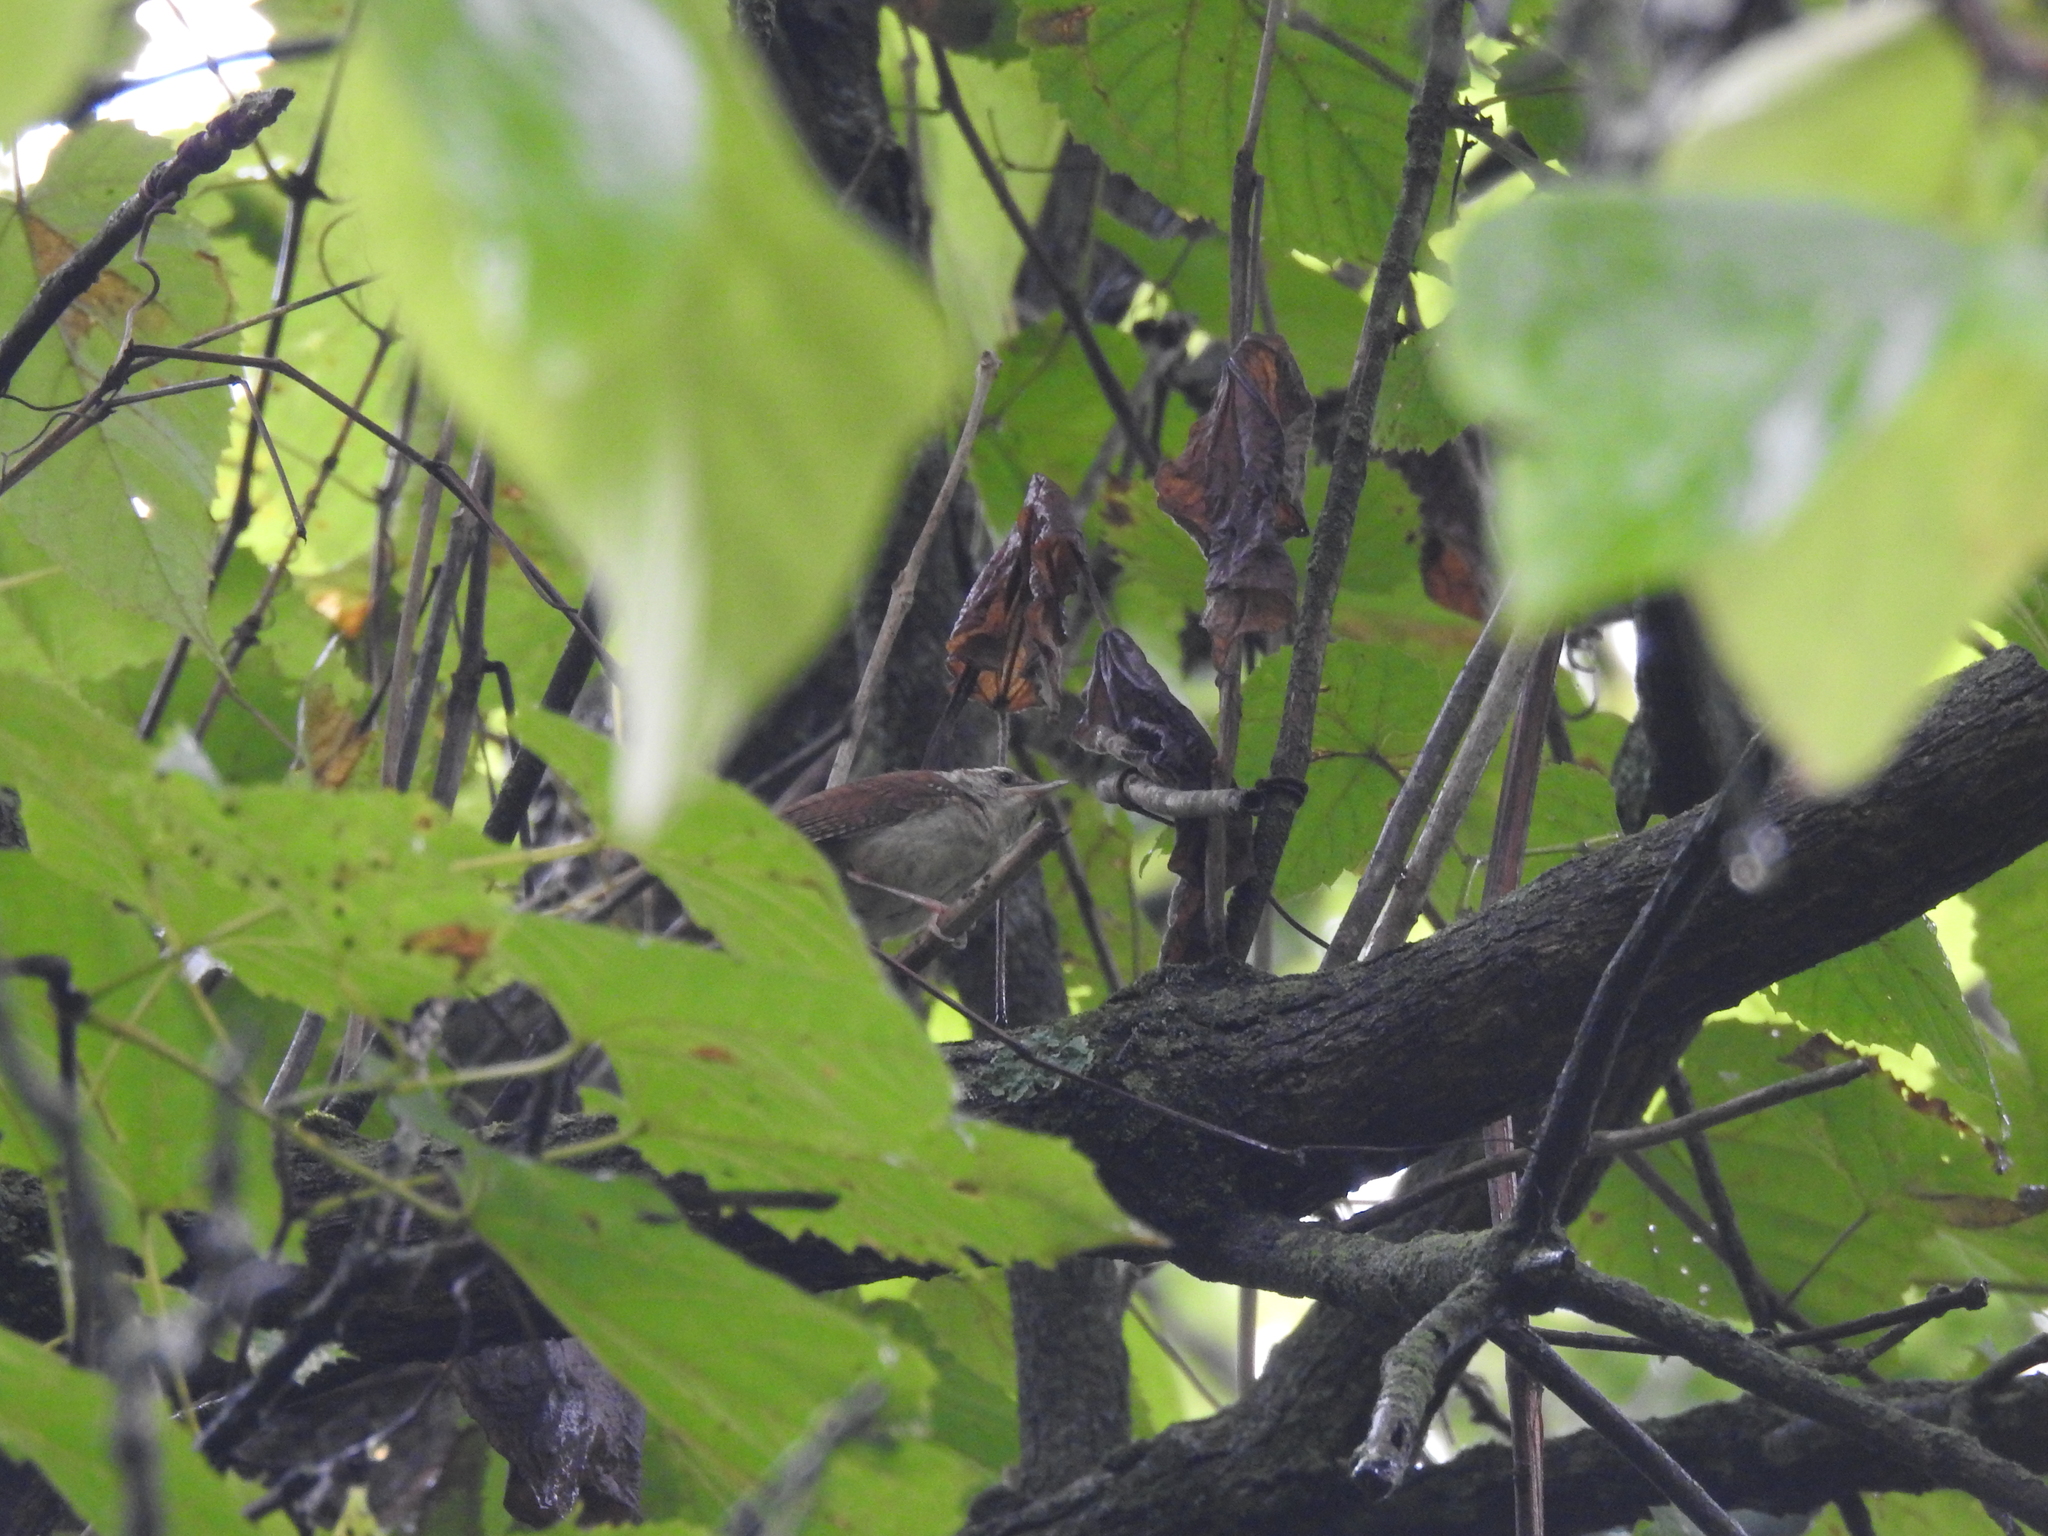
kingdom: Animalia
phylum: Chordata
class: Aves
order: Passeriformes
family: Troglodytidae
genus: Thryothorus
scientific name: Thryothorus ludovicianus
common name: Carolina wren
